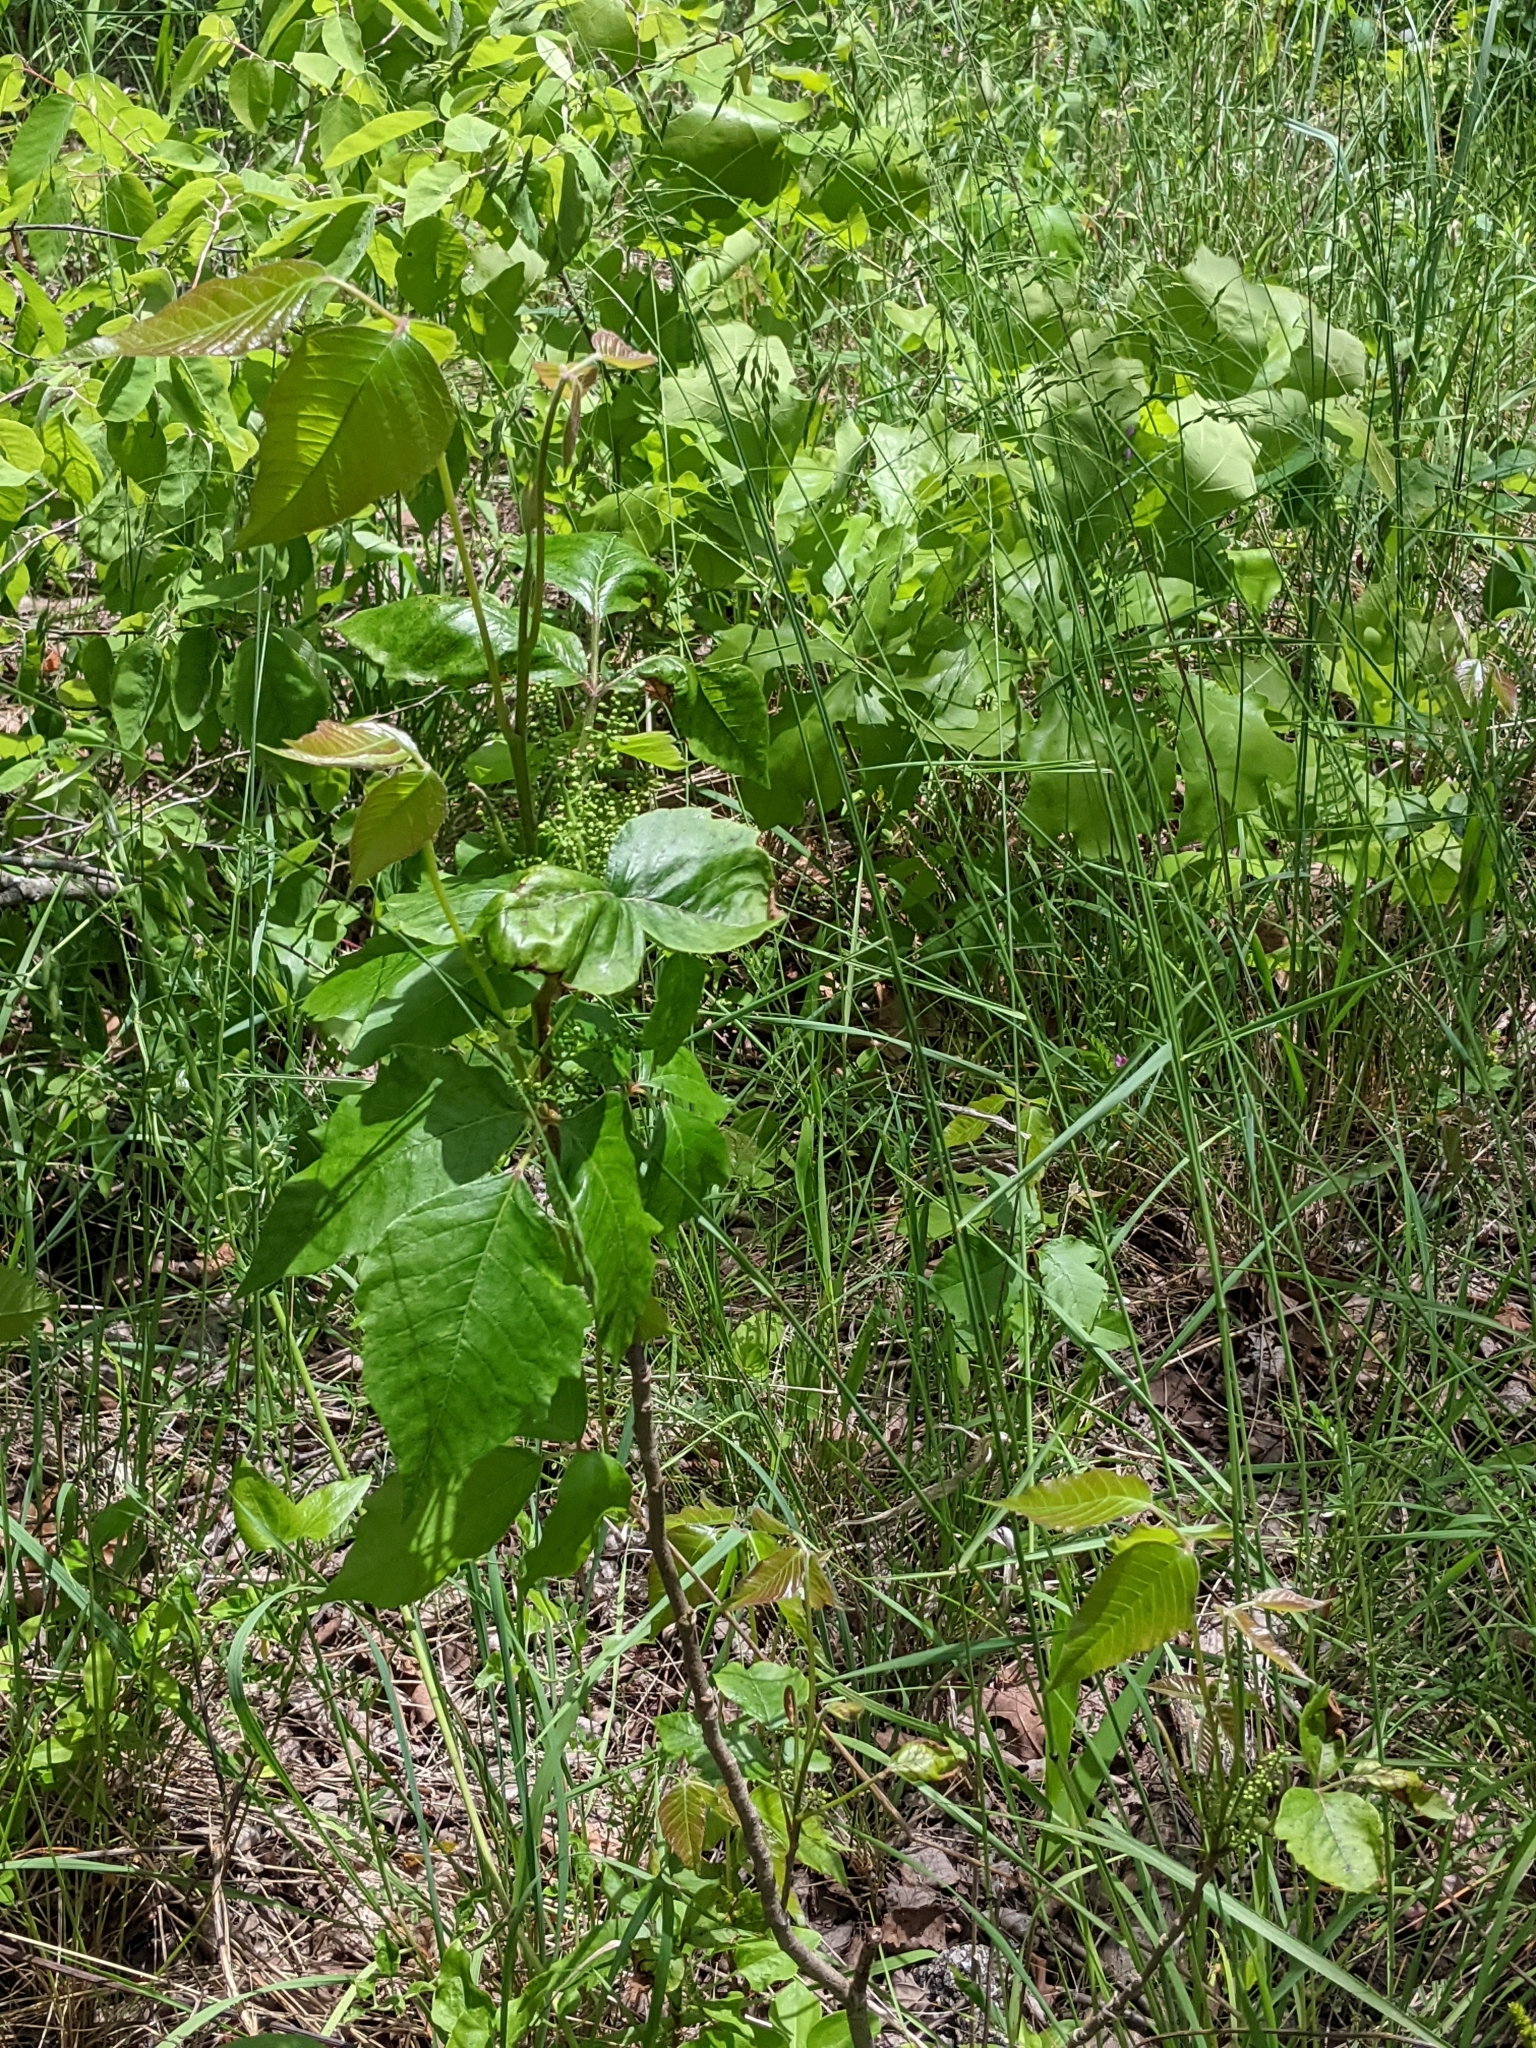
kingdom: Plantae
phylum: Tracheophyta
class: Magnoliopsida
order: Sapindales
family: Anacardiaceae
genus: Toxicodendron
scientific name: Toxicodendron radicans
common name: Poison ivy
